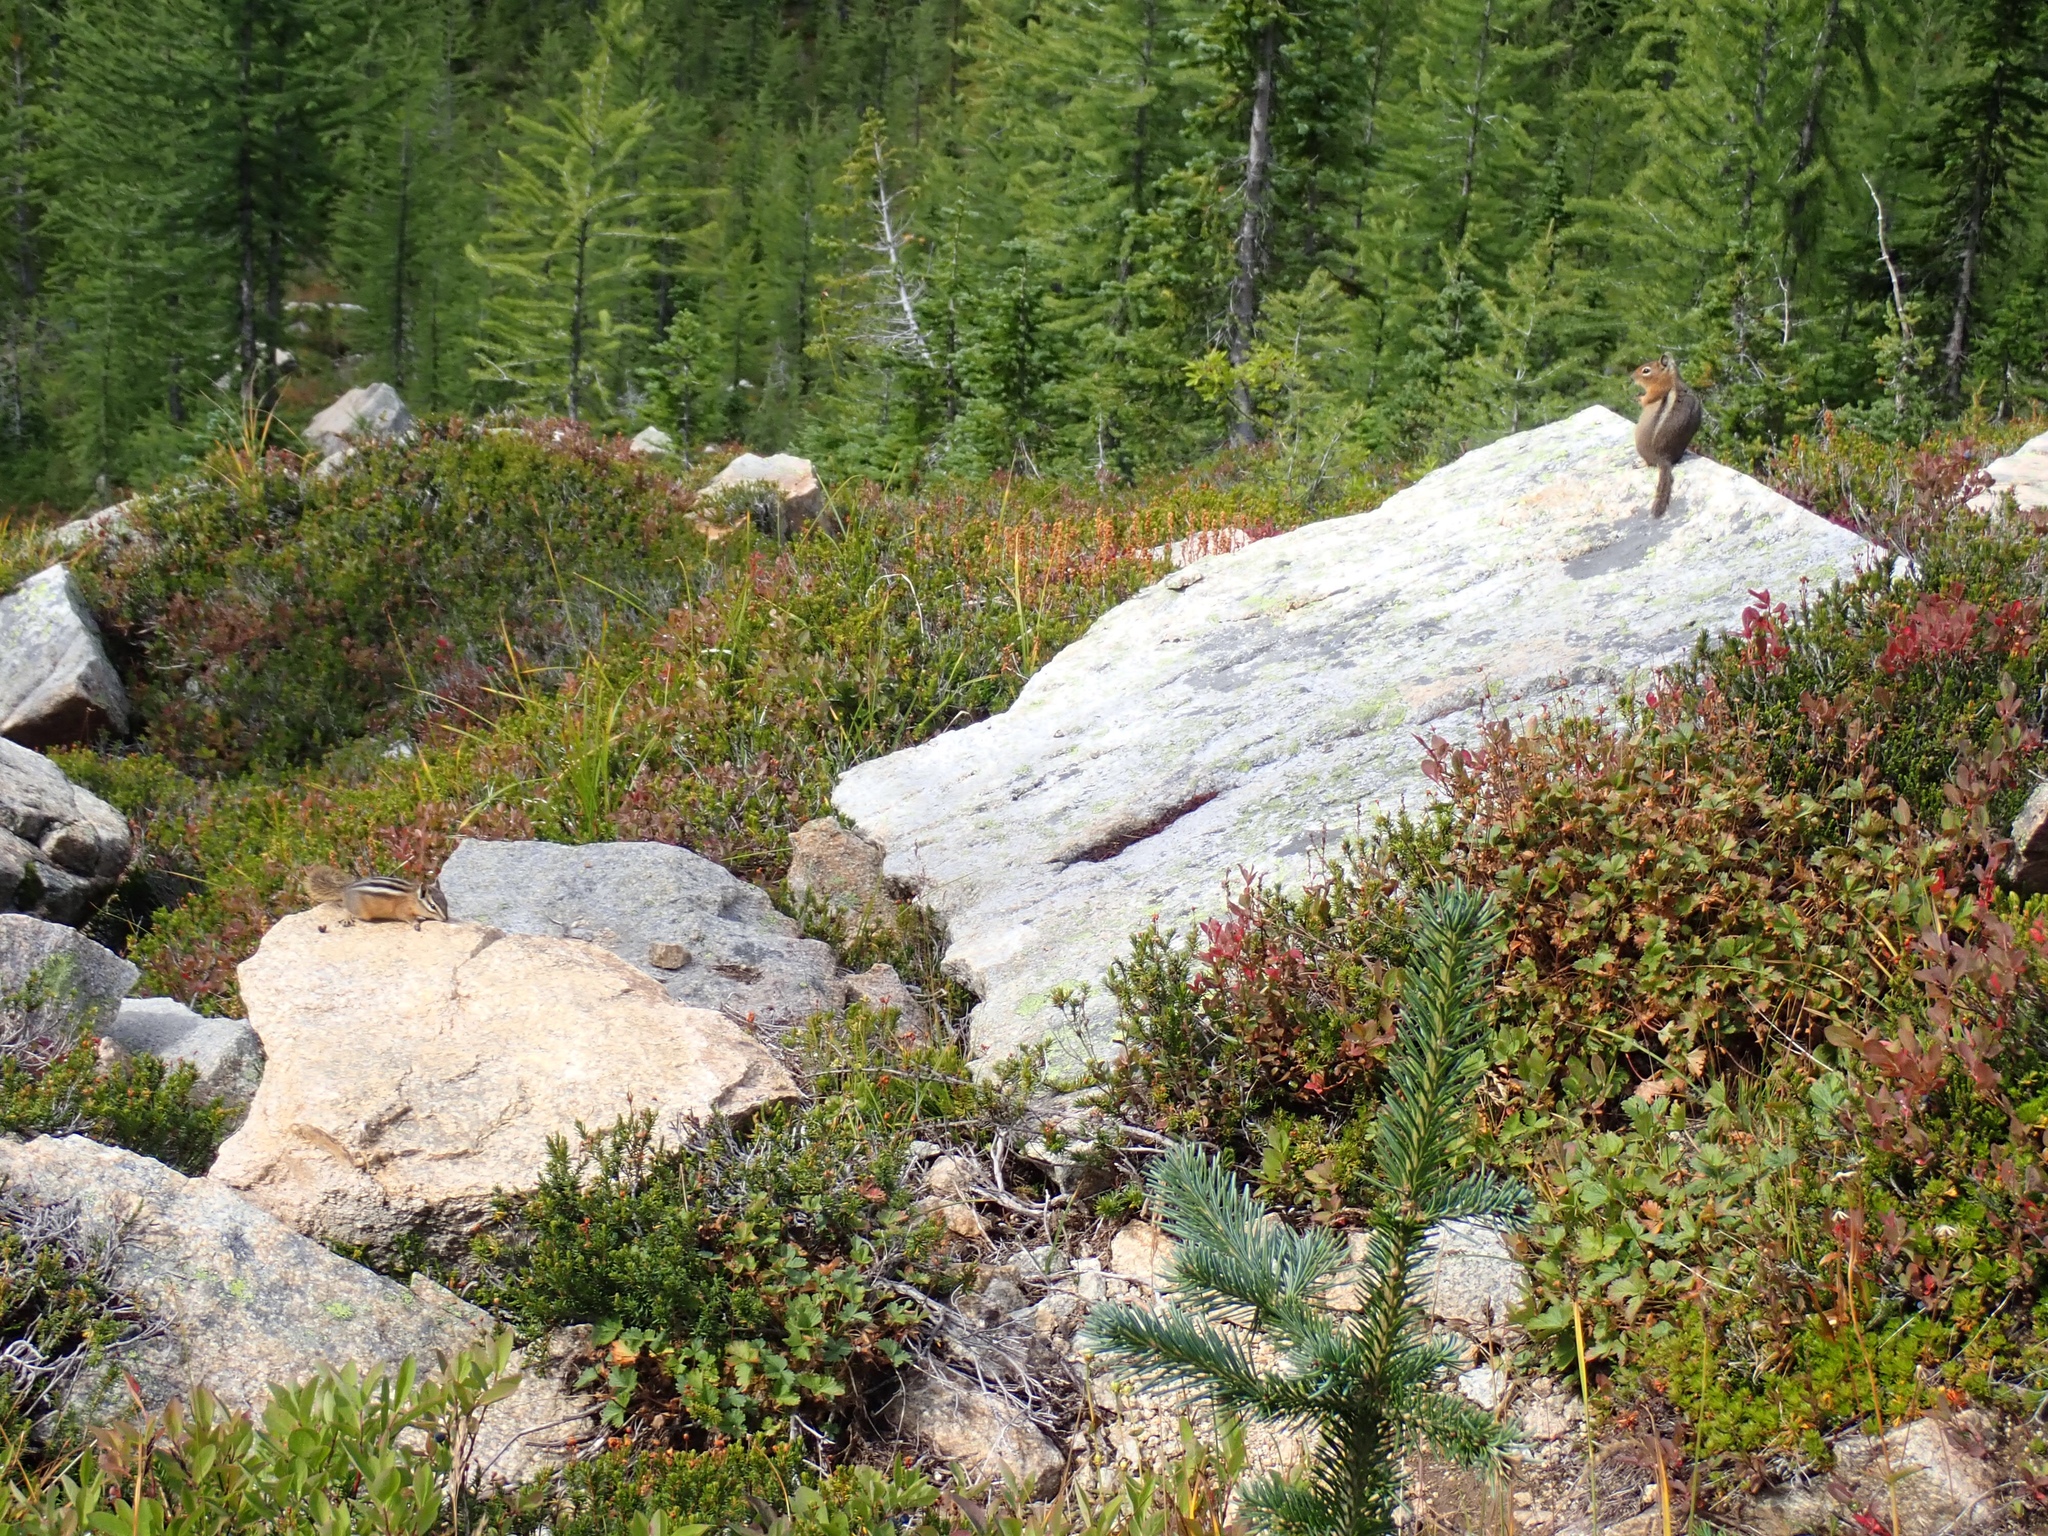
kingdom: Animalia
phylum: Chordata
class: Mammalia
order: Rodentia
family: Sciuridae
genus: Callospermophilus
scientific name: Callospermophilus saturatus
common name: Cascade golden-mantled ground squirrel
